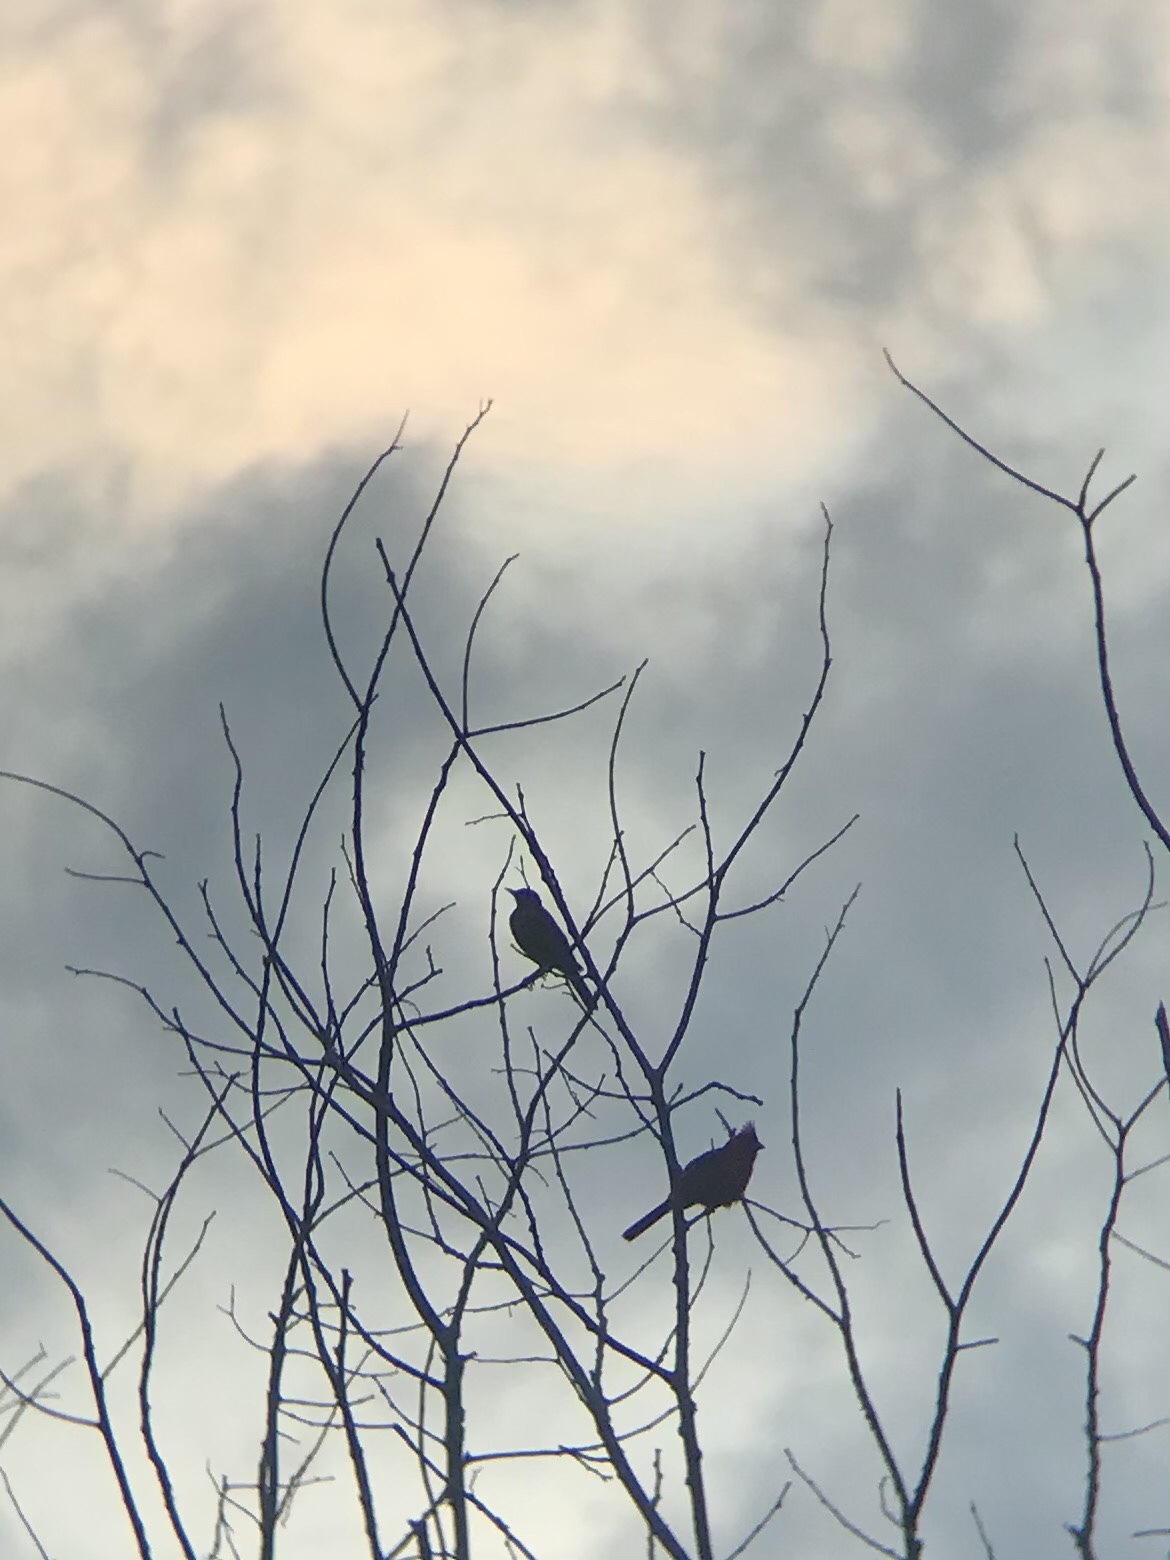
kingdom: Animalia
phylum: Chordata
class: Aves
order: Passeriformes
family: Cardinalidae
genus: Cardinalis
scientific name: Cardinalis cardinalis
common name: Northern cardinal
